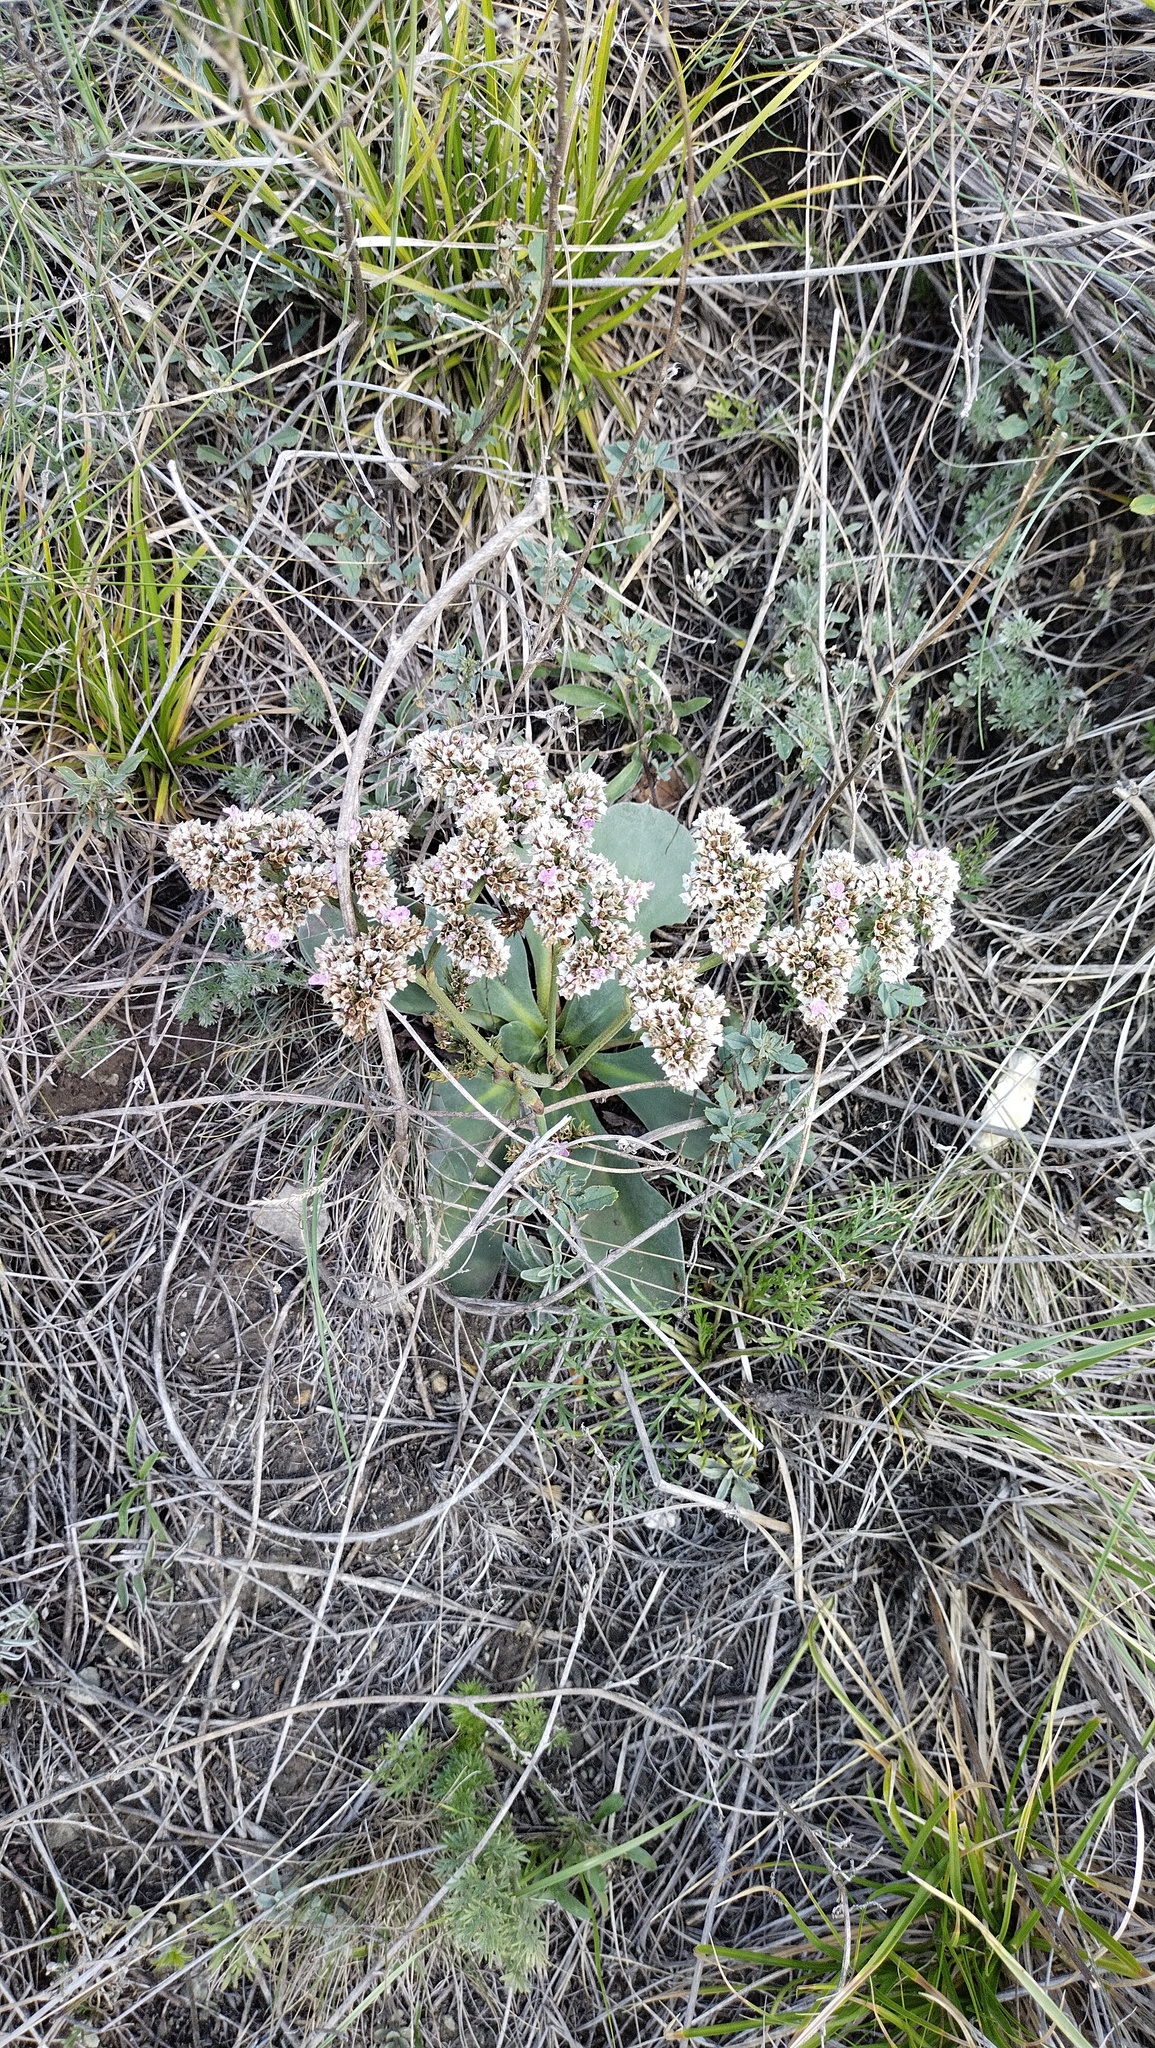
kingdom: Plantae
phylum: Tracheophyta
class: Magnoliopsida
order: Caryophyllales
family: Plumbaginaceae
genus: Goniolimon
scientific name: Goniolimon speciosum
